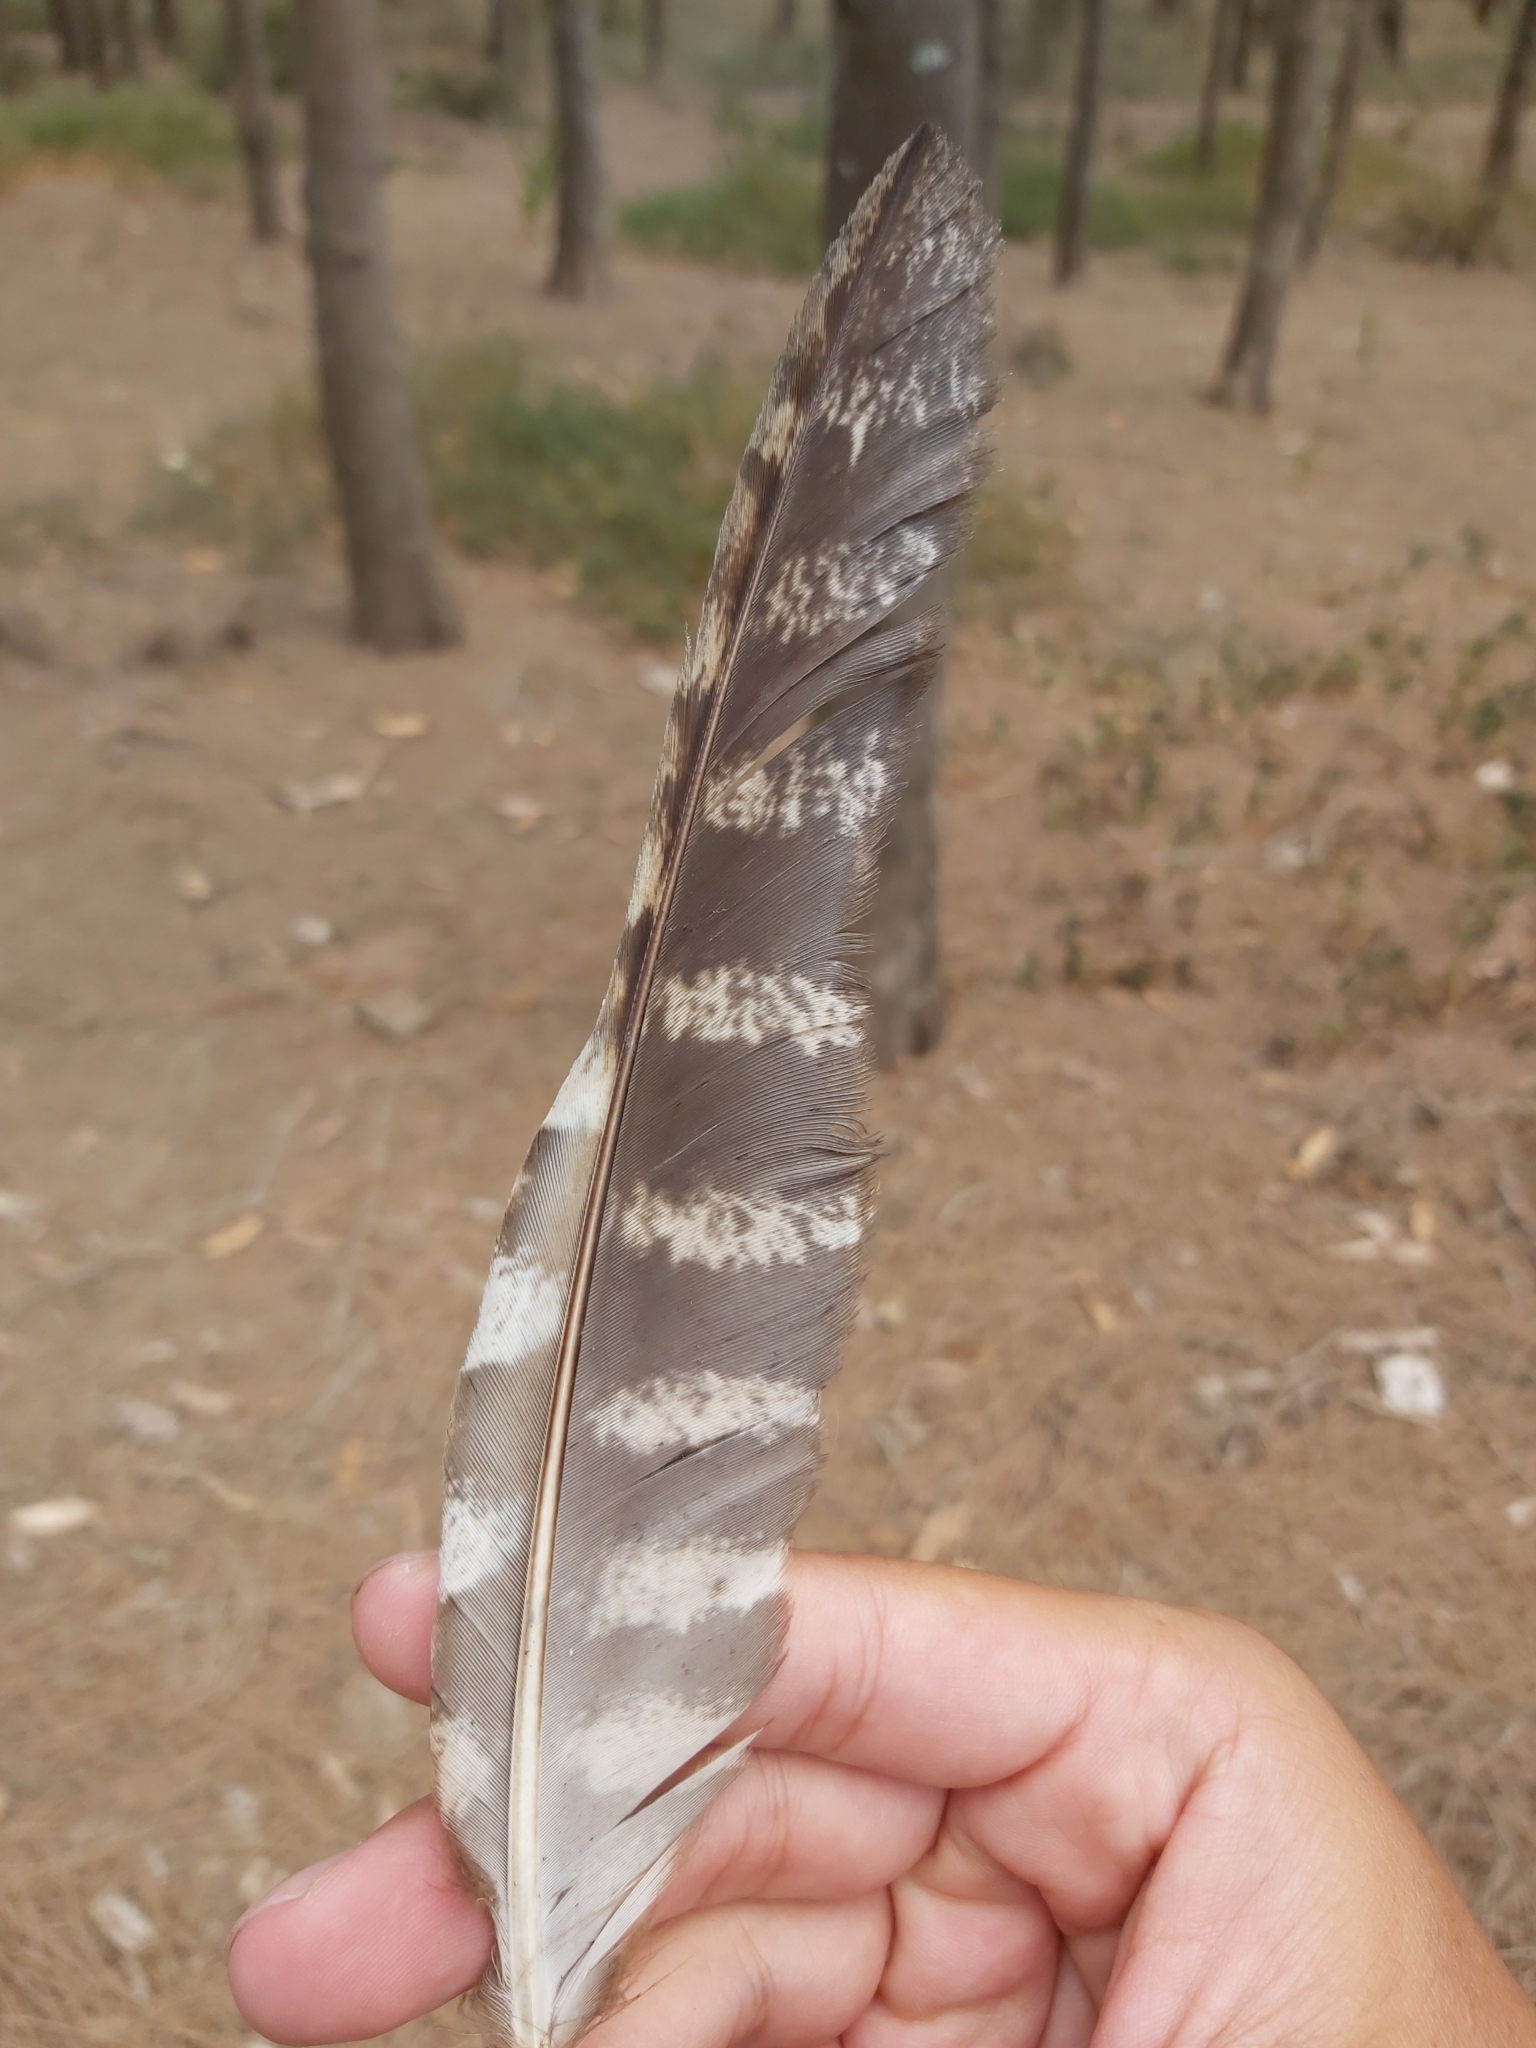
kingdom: Animalia
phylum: Chordata
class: Aves
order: Caprimulgiformes
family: Podargidae
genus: Podargus
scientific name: Podargus strigoides
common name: Tawny frogmouth
